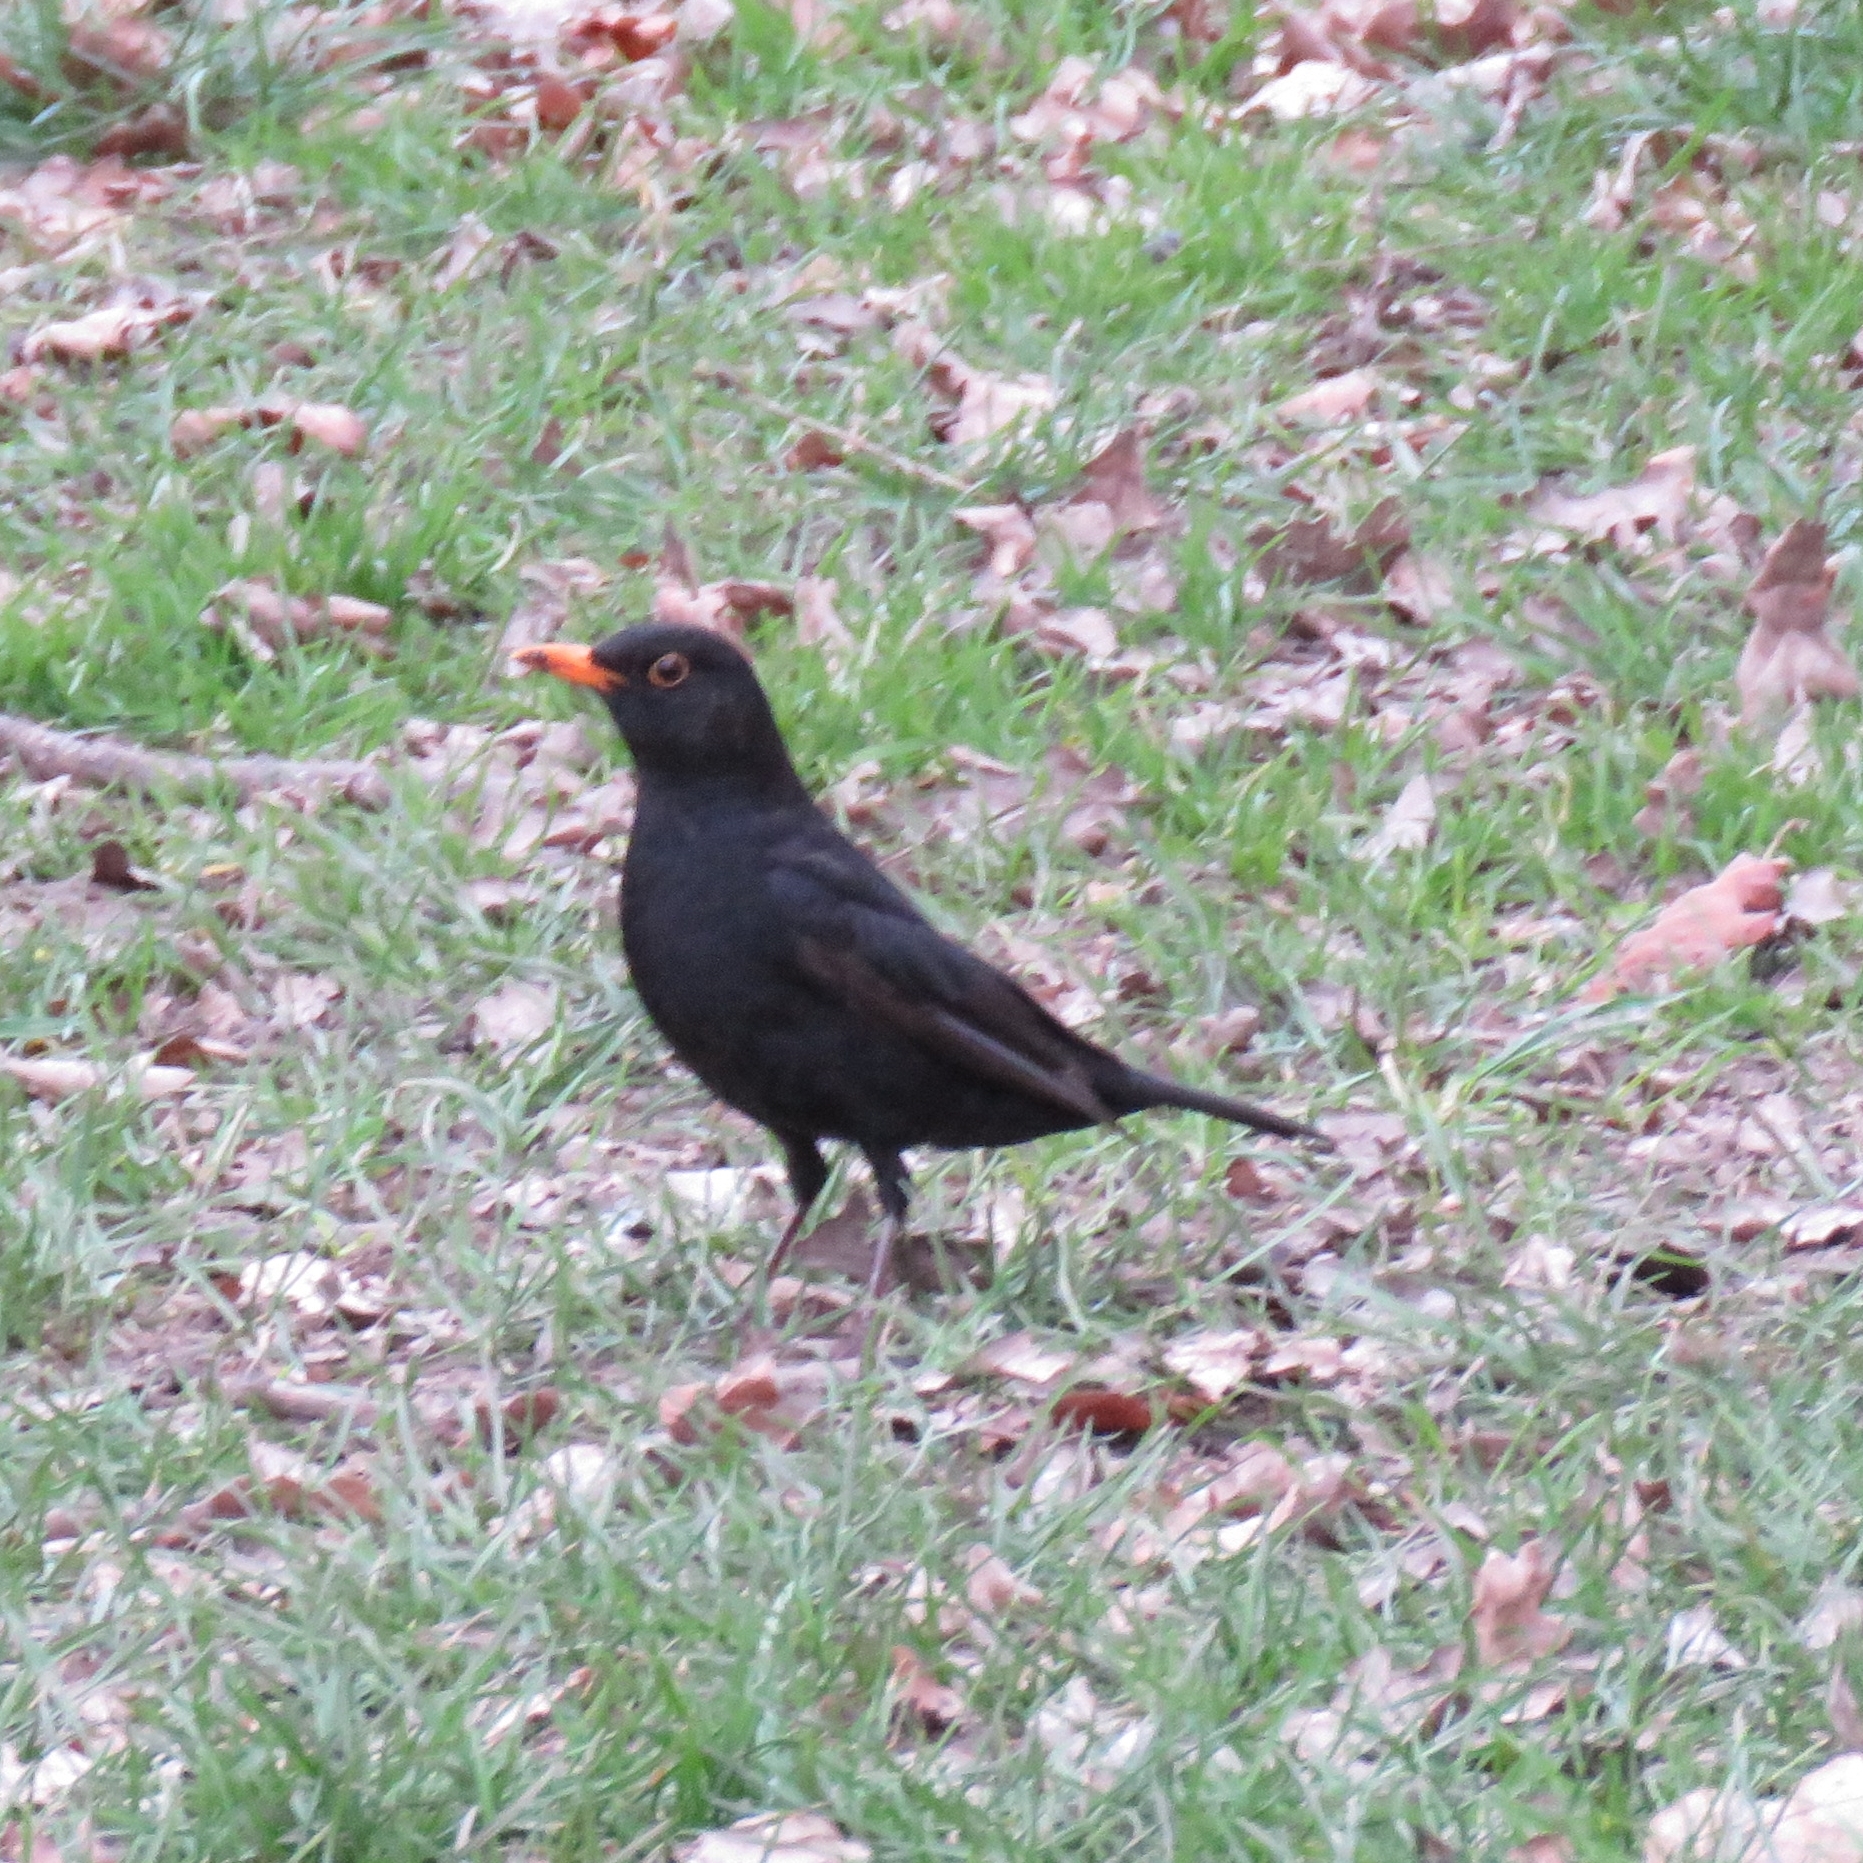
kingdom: Animalia
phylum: Chordata
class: Aves
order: Passeriformes
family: Turdidae
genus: Turdus
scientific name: Turdus merula
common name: Common blackbird
